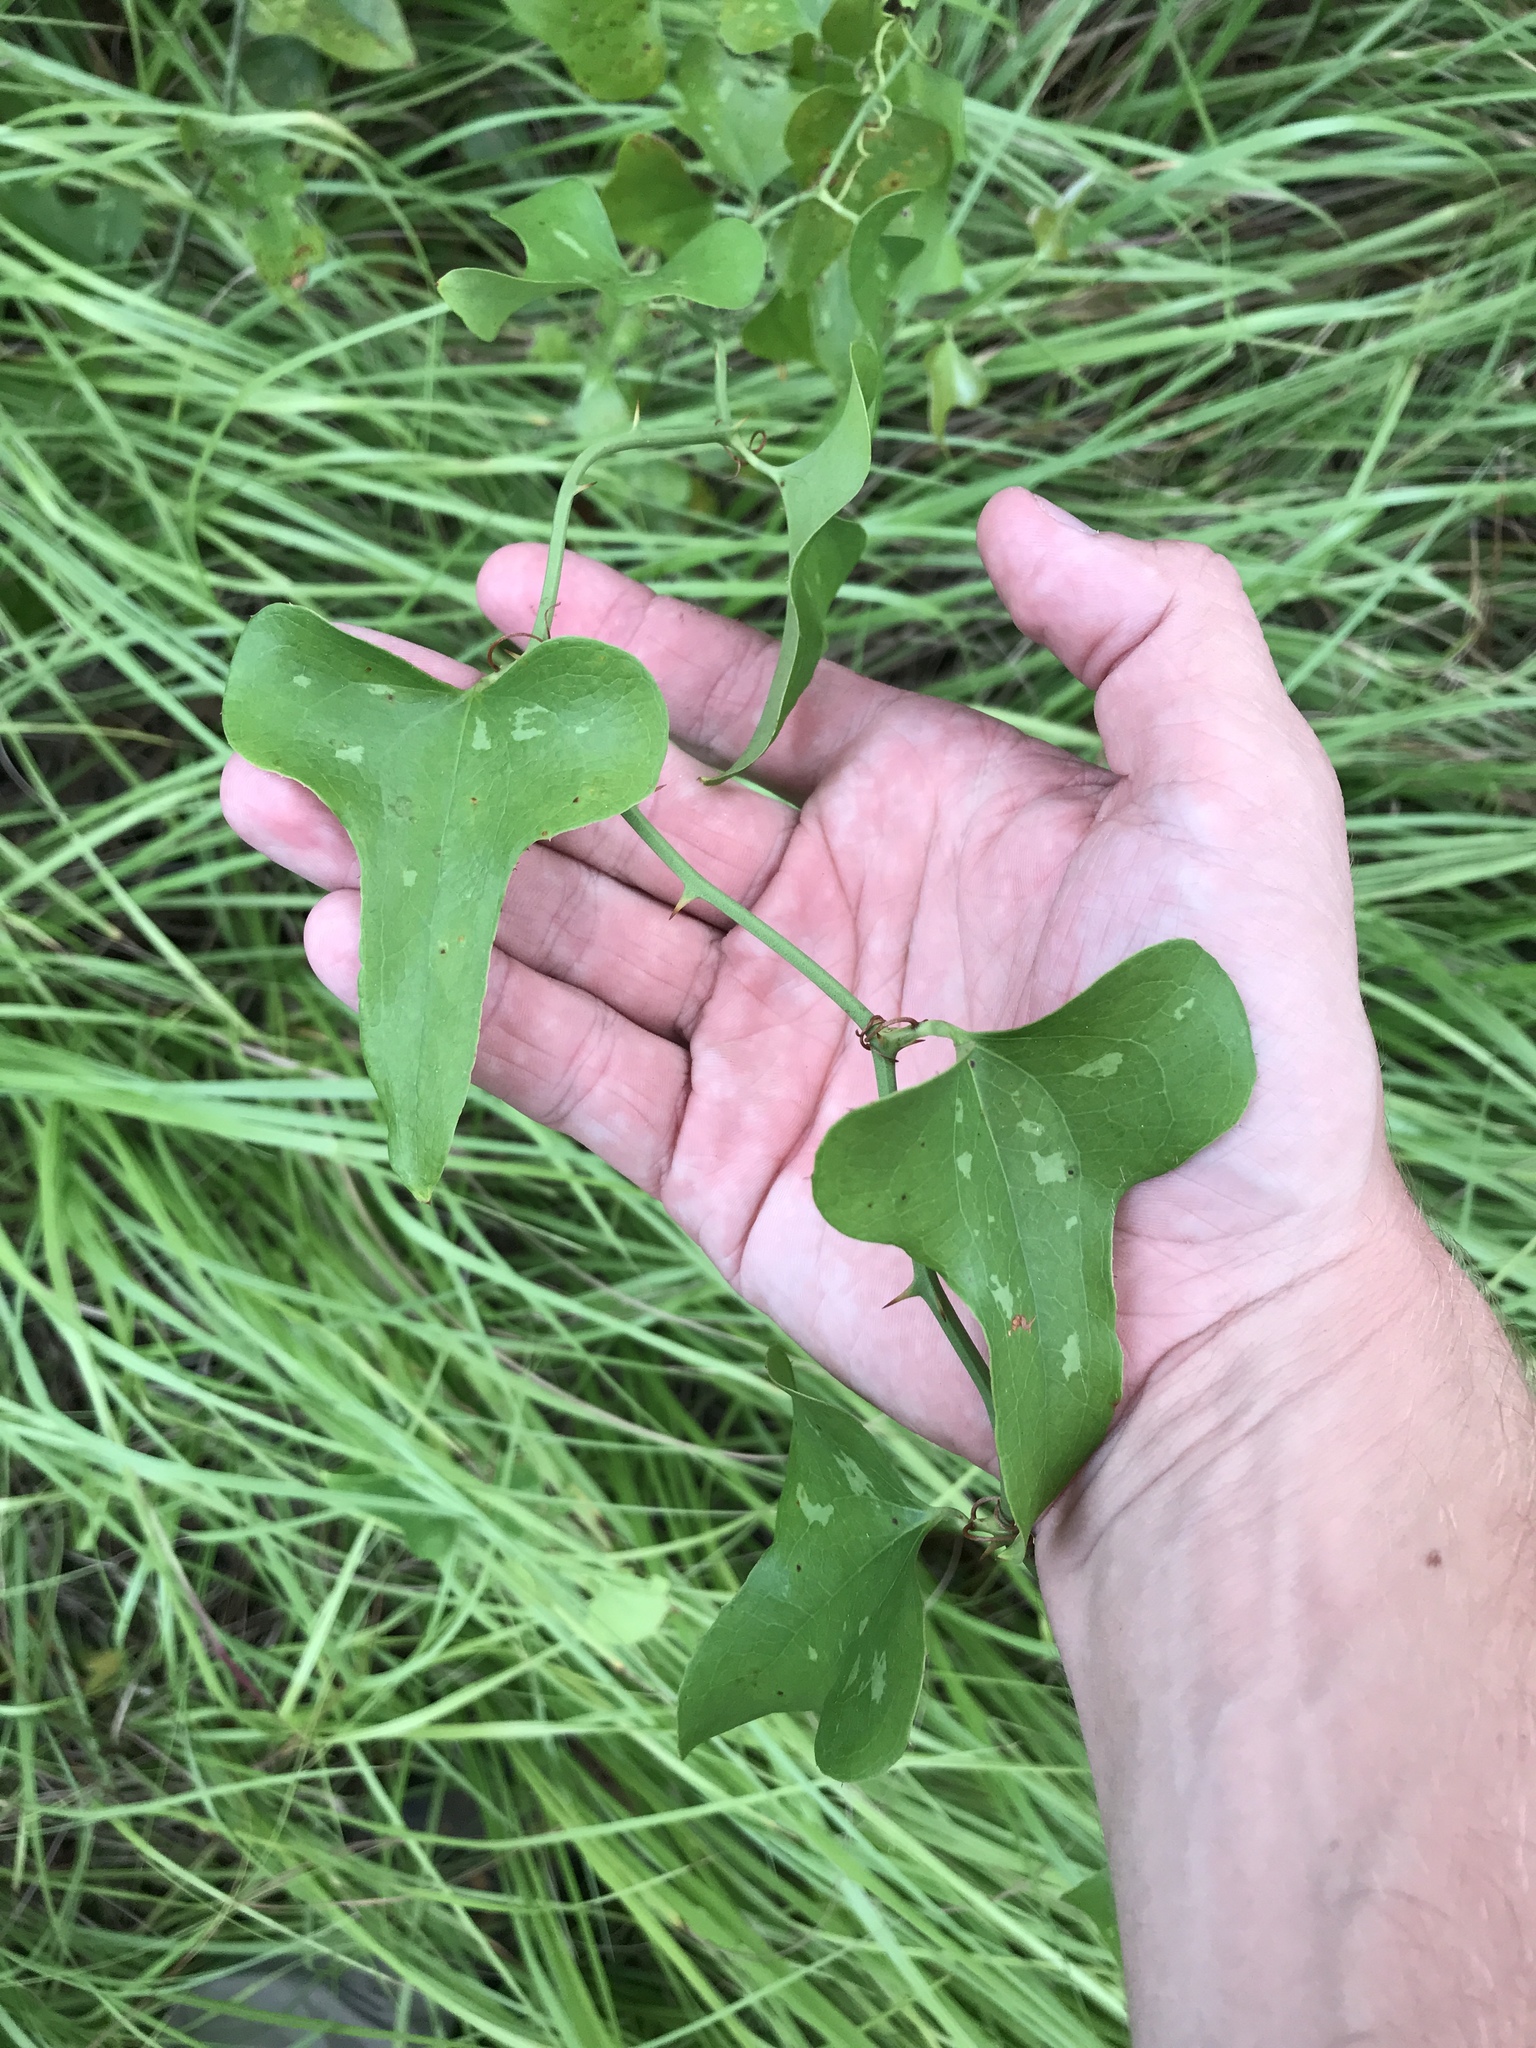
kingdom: Plantae
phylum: Tracheophyta
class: Liliopsida
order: Liliales
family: Smilacaceae
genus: Smilax
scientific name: Smilax bona-nox
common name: Catbrier
